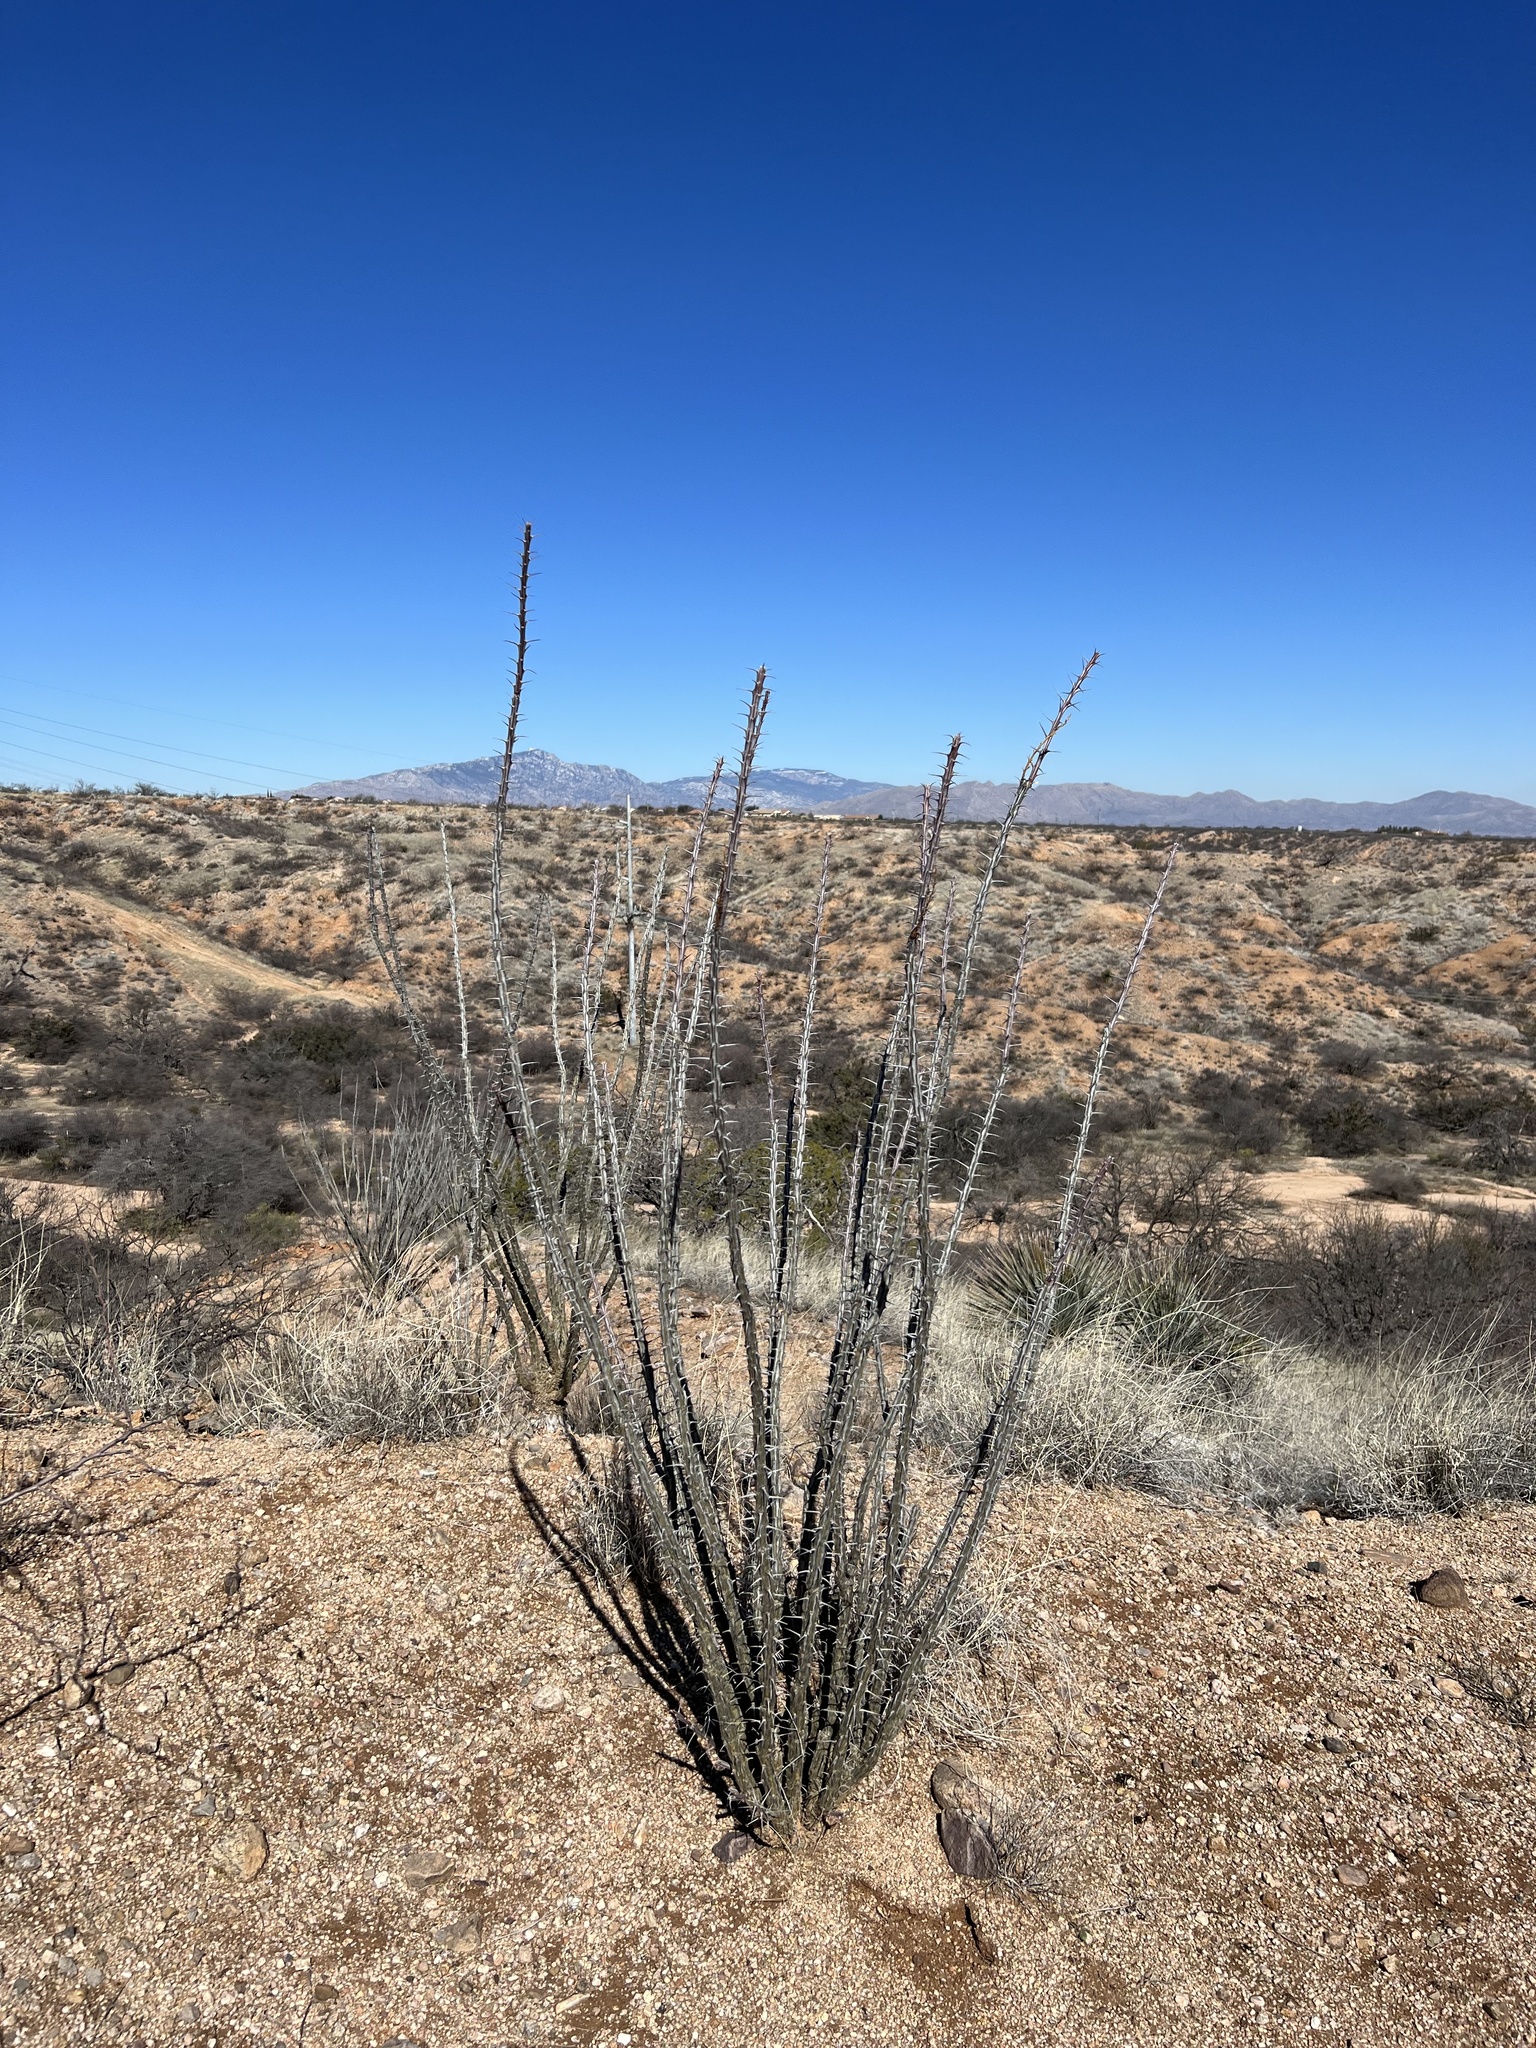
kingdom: Plantae
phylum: Tracheophyta
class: Magnoliopsida
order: Ericales
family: Fouquieriaceae
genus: Fouquieria
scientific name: Fouquieria splendens
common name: Vine-cactus
